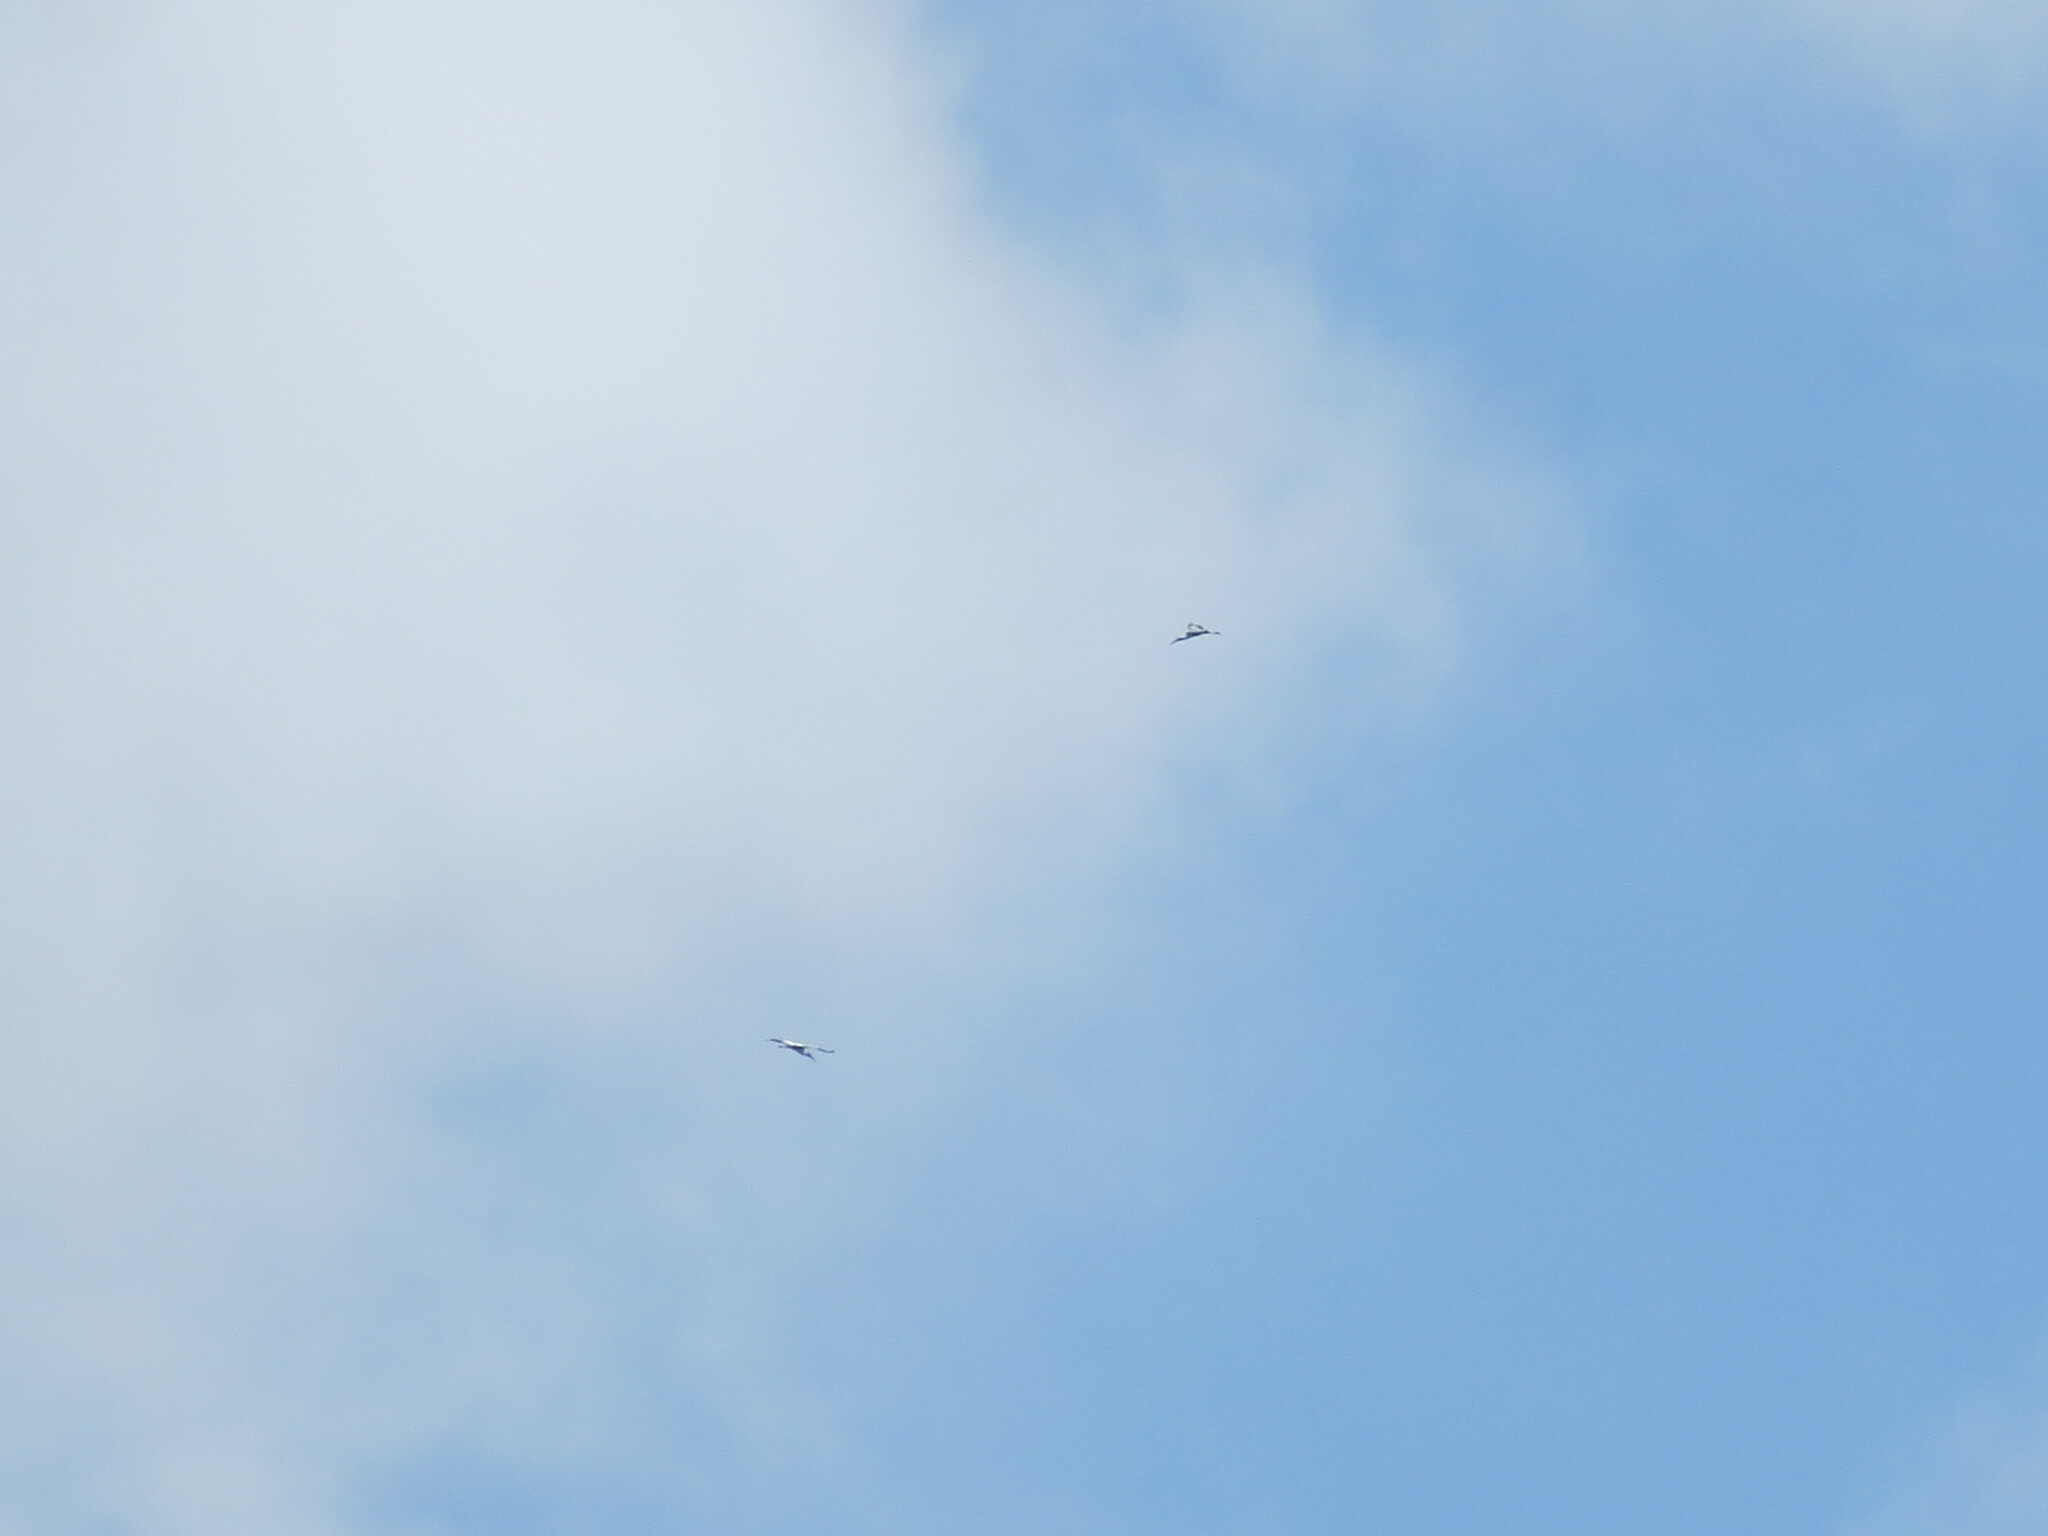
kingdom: Animalia
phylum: Chordata
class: Aves
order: Ciconiiformes
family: Ciconiidae
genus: Mycteria
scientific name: Mycteria americana
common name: Wood stork
